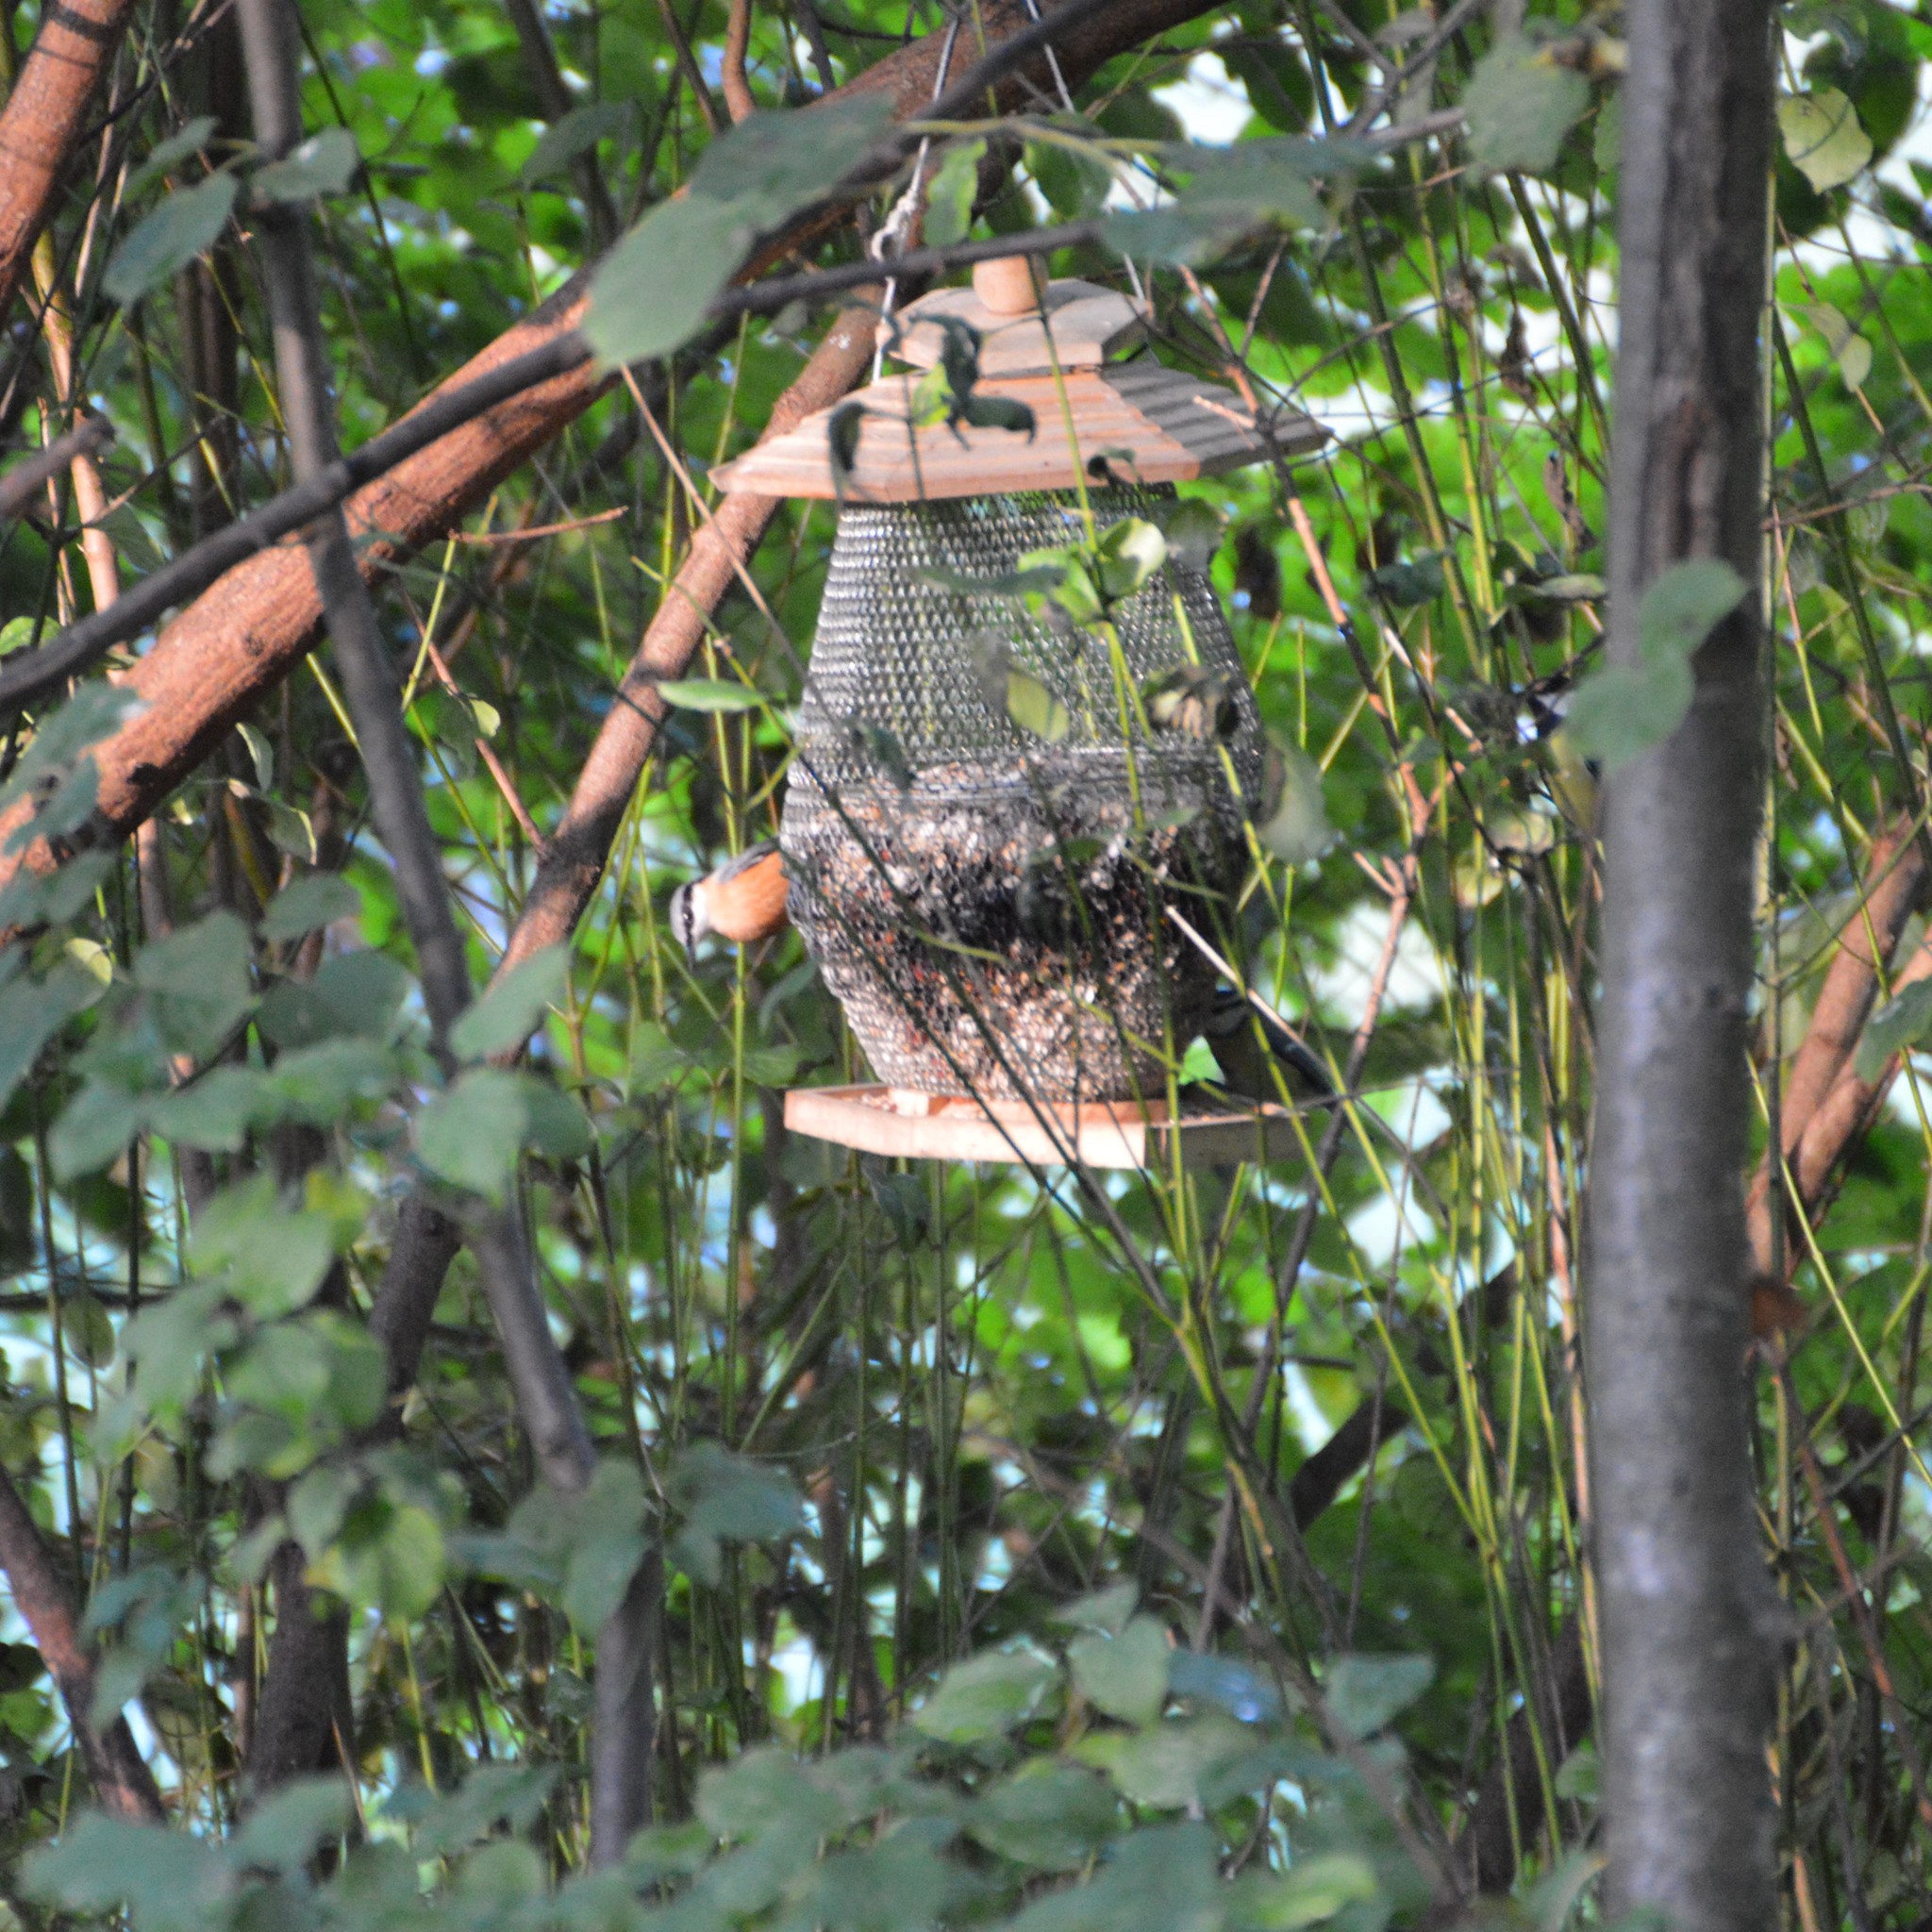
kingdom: Animalia
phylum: Chordata
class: Aves
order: Passeriformes
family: Sittidae
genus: Sitta
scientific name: Sitta europaea
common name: Eurasian nuthatch
